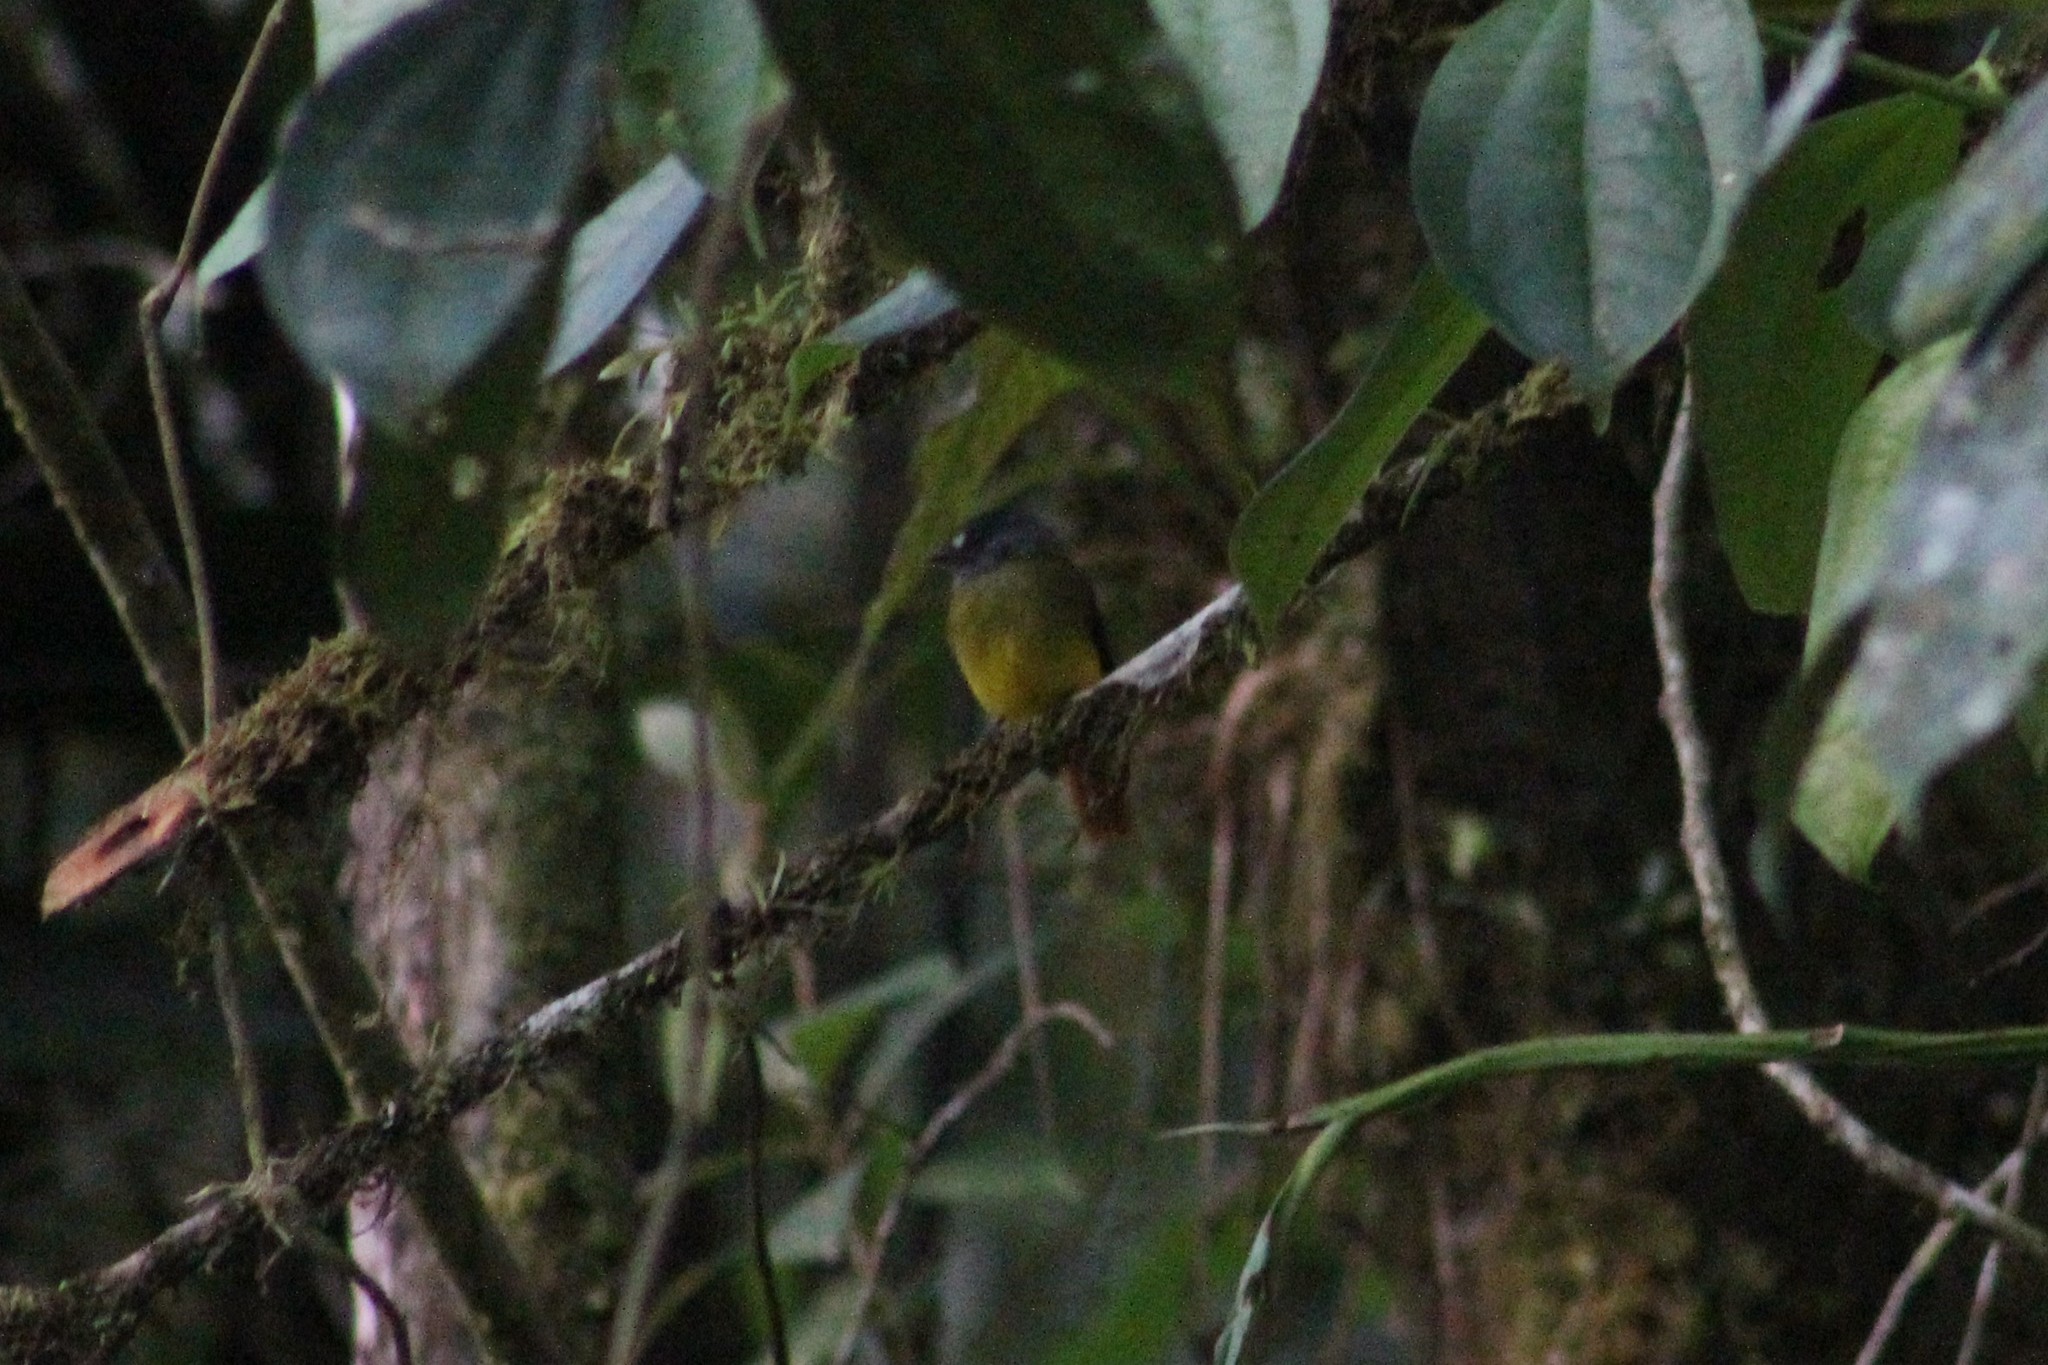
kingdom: Animalia
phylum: Chordata
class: Aves
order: Passeriformes
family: Tyrannidae
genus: Myiotriccus
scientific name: Myiotriccus ornatus
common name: Ornate flycatcher
